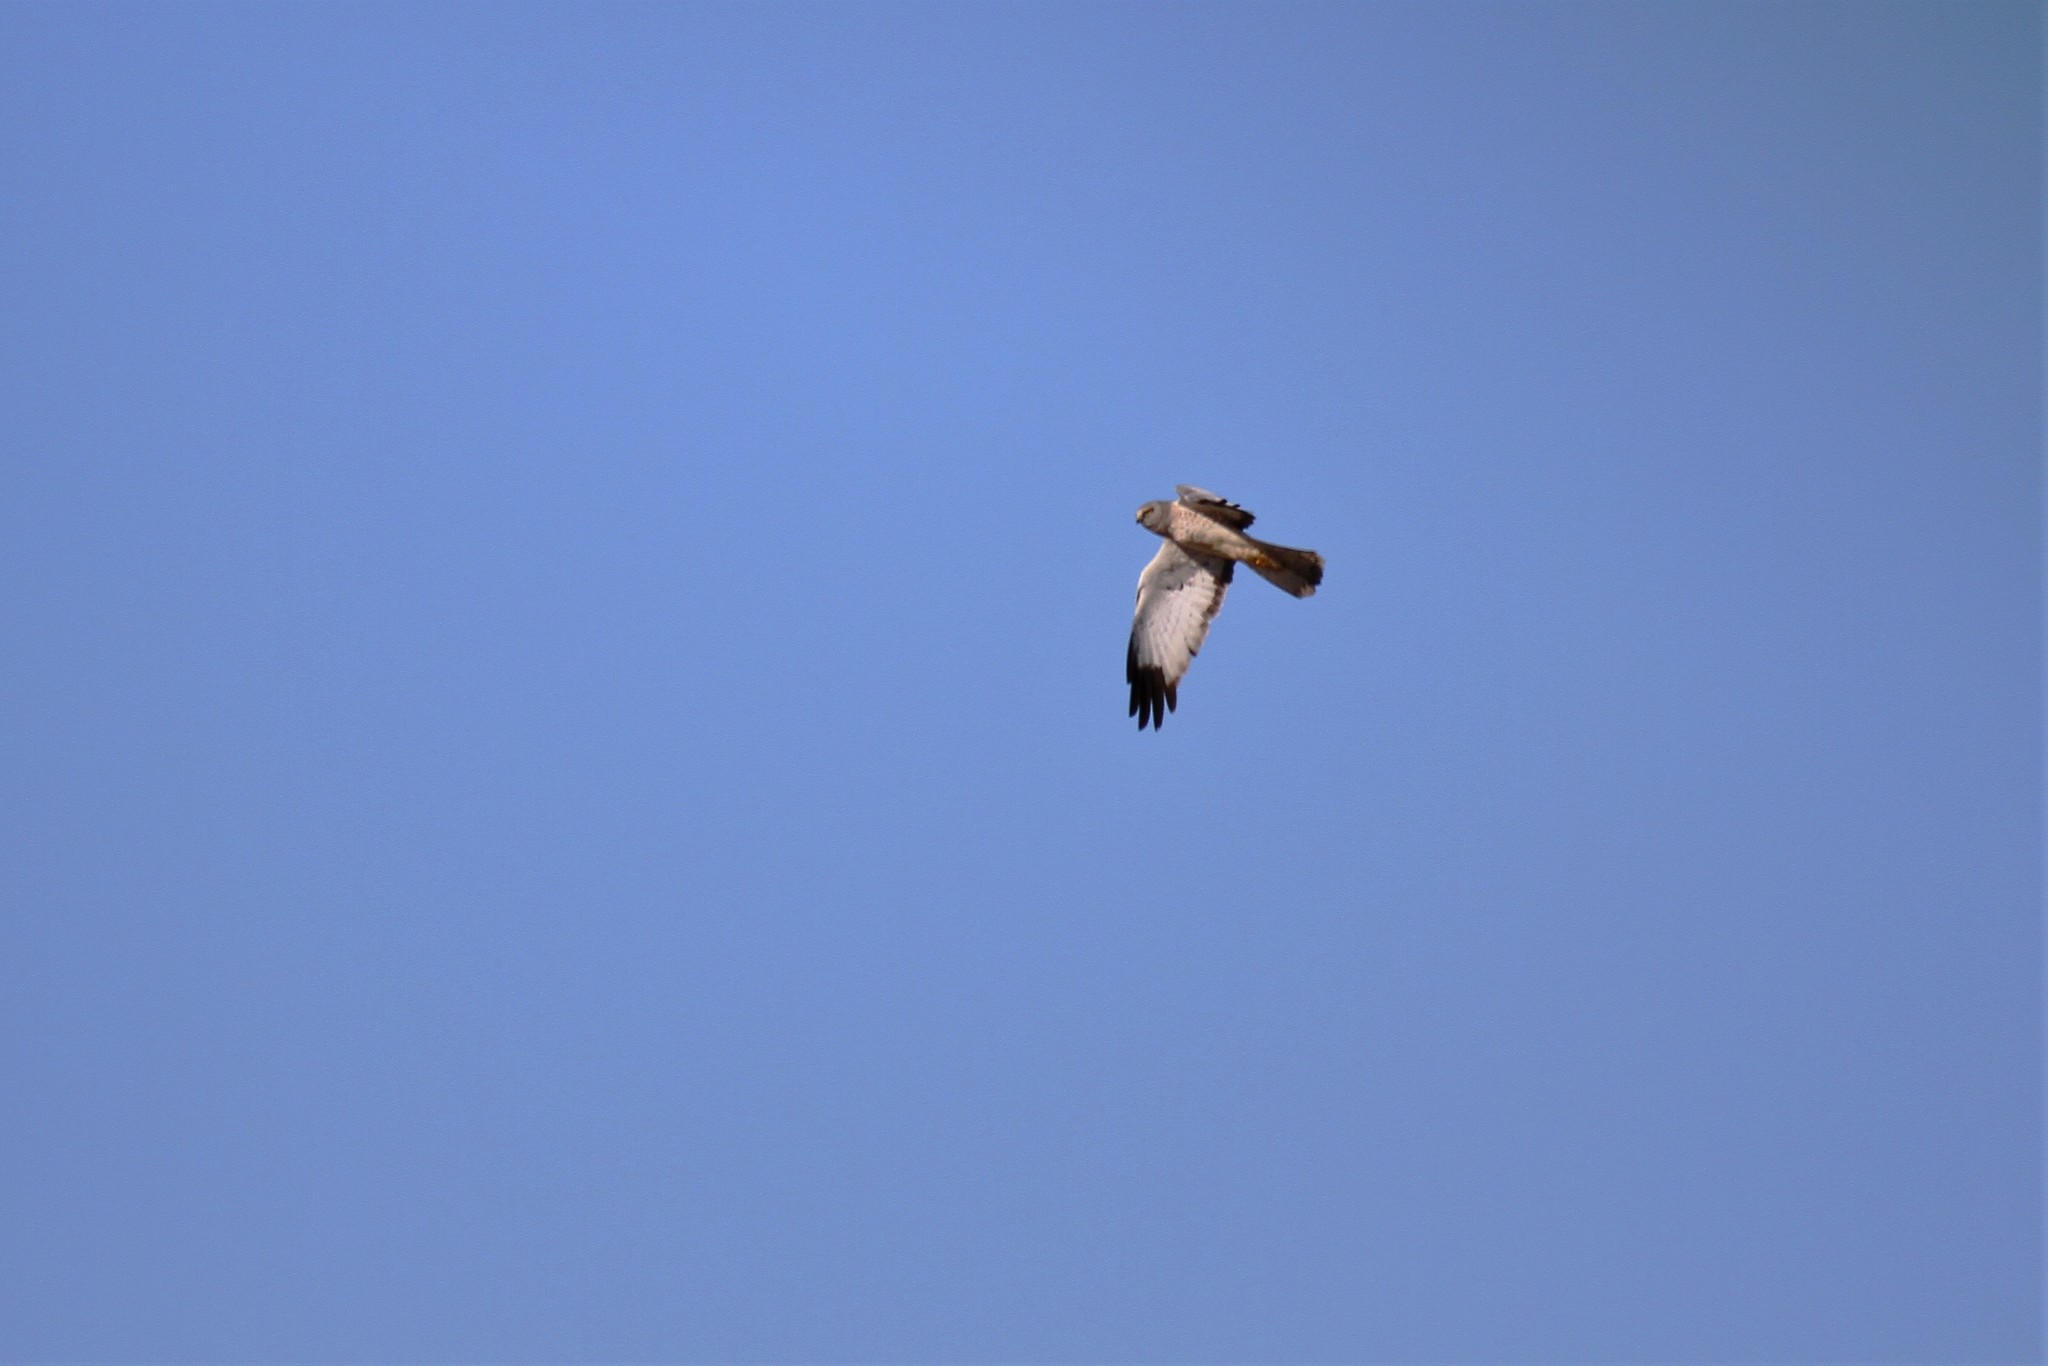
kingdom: Animalia
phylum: Chordata
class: Aves
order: Accipitriformes
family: Accipitridae
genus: Circus
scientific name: Circus cyaneus
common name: Hen harrier
